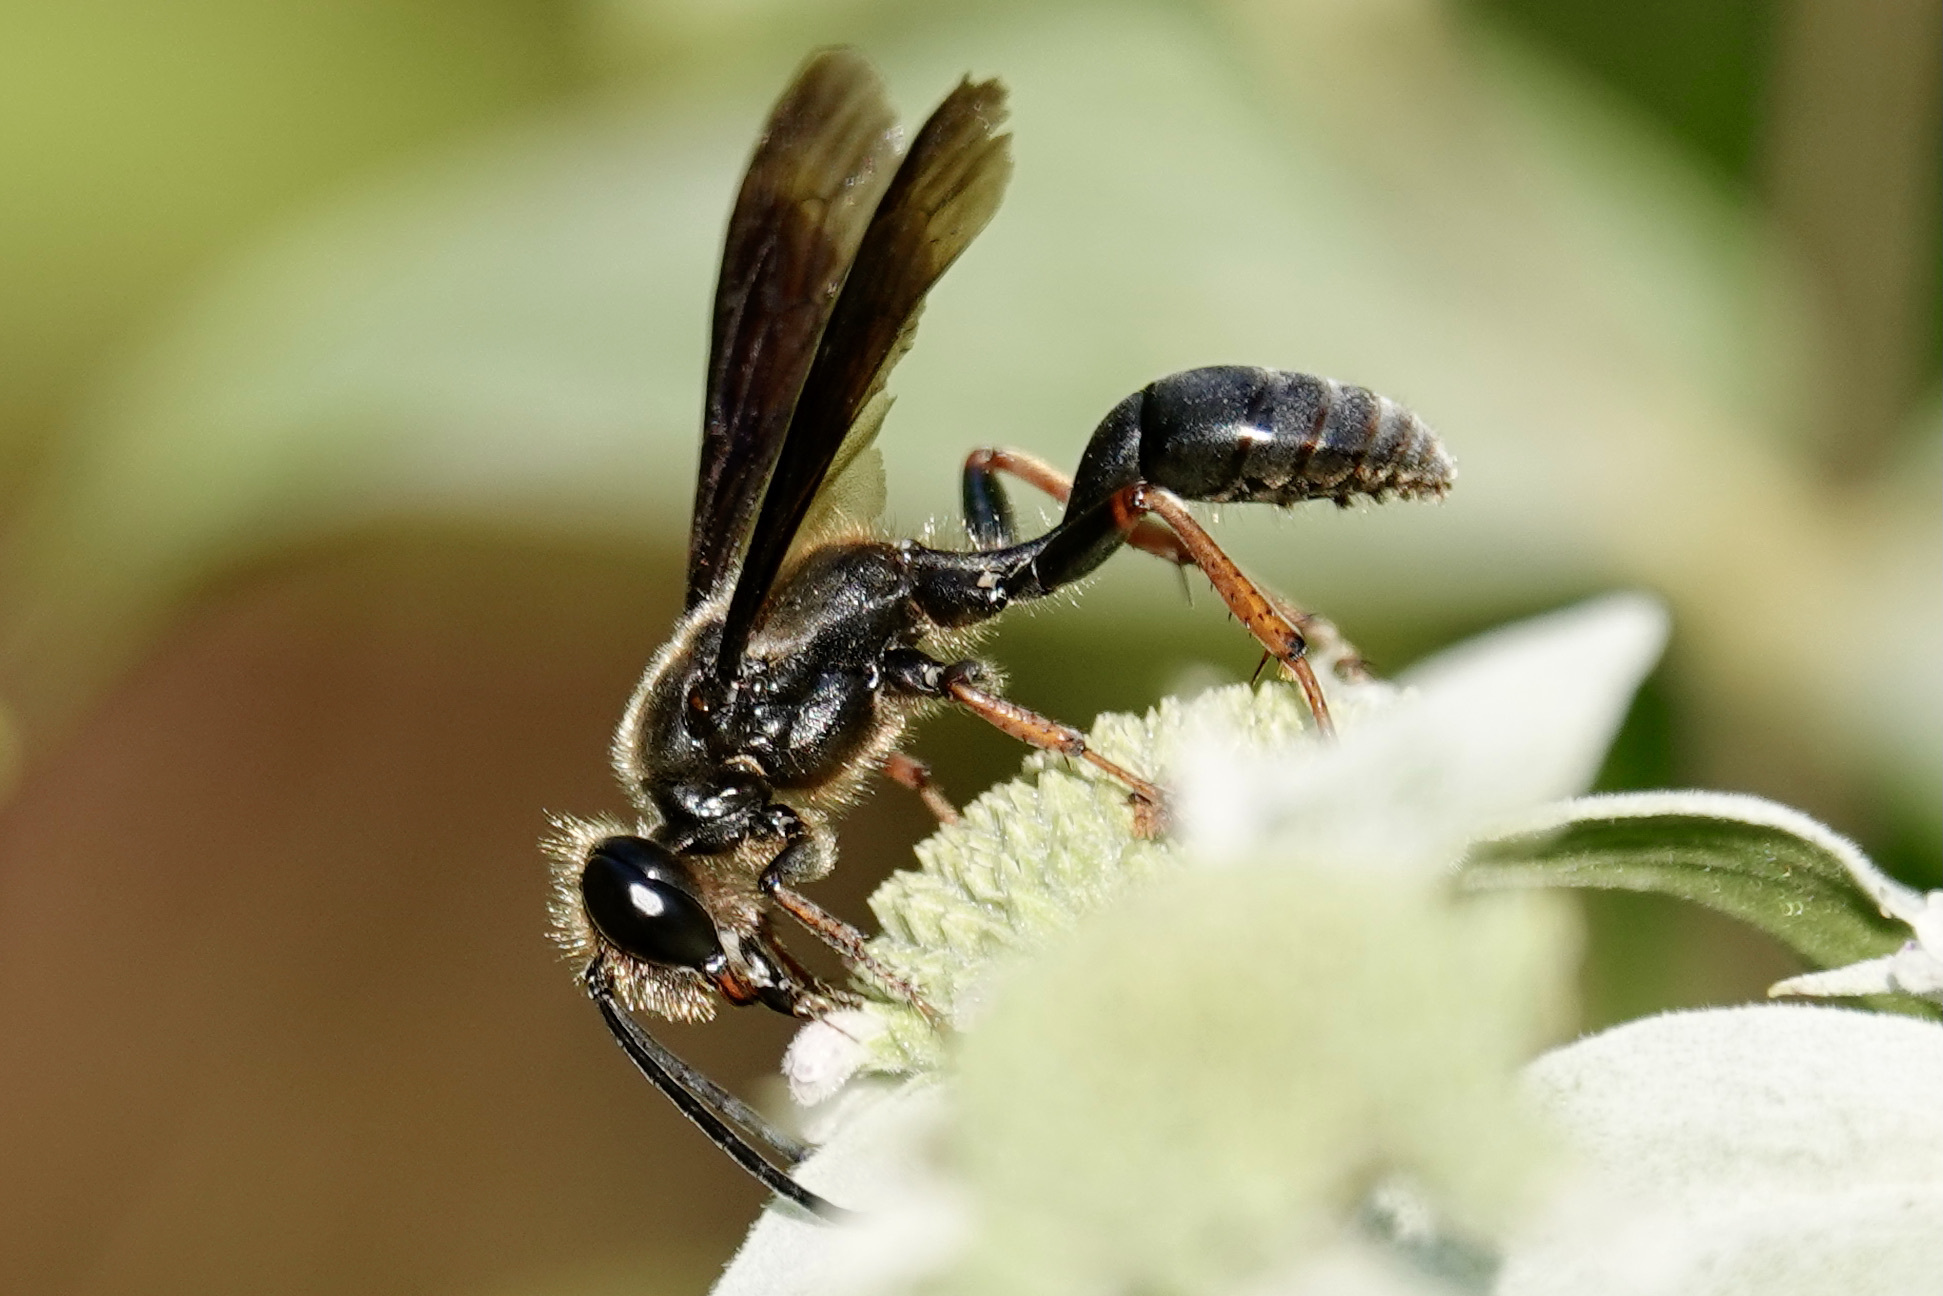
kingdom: Animalia
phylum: Arthropoda
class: Insecta
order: Hymenoptera
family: Sphecidae
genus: Isodontia
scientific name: Isodontia auripes
